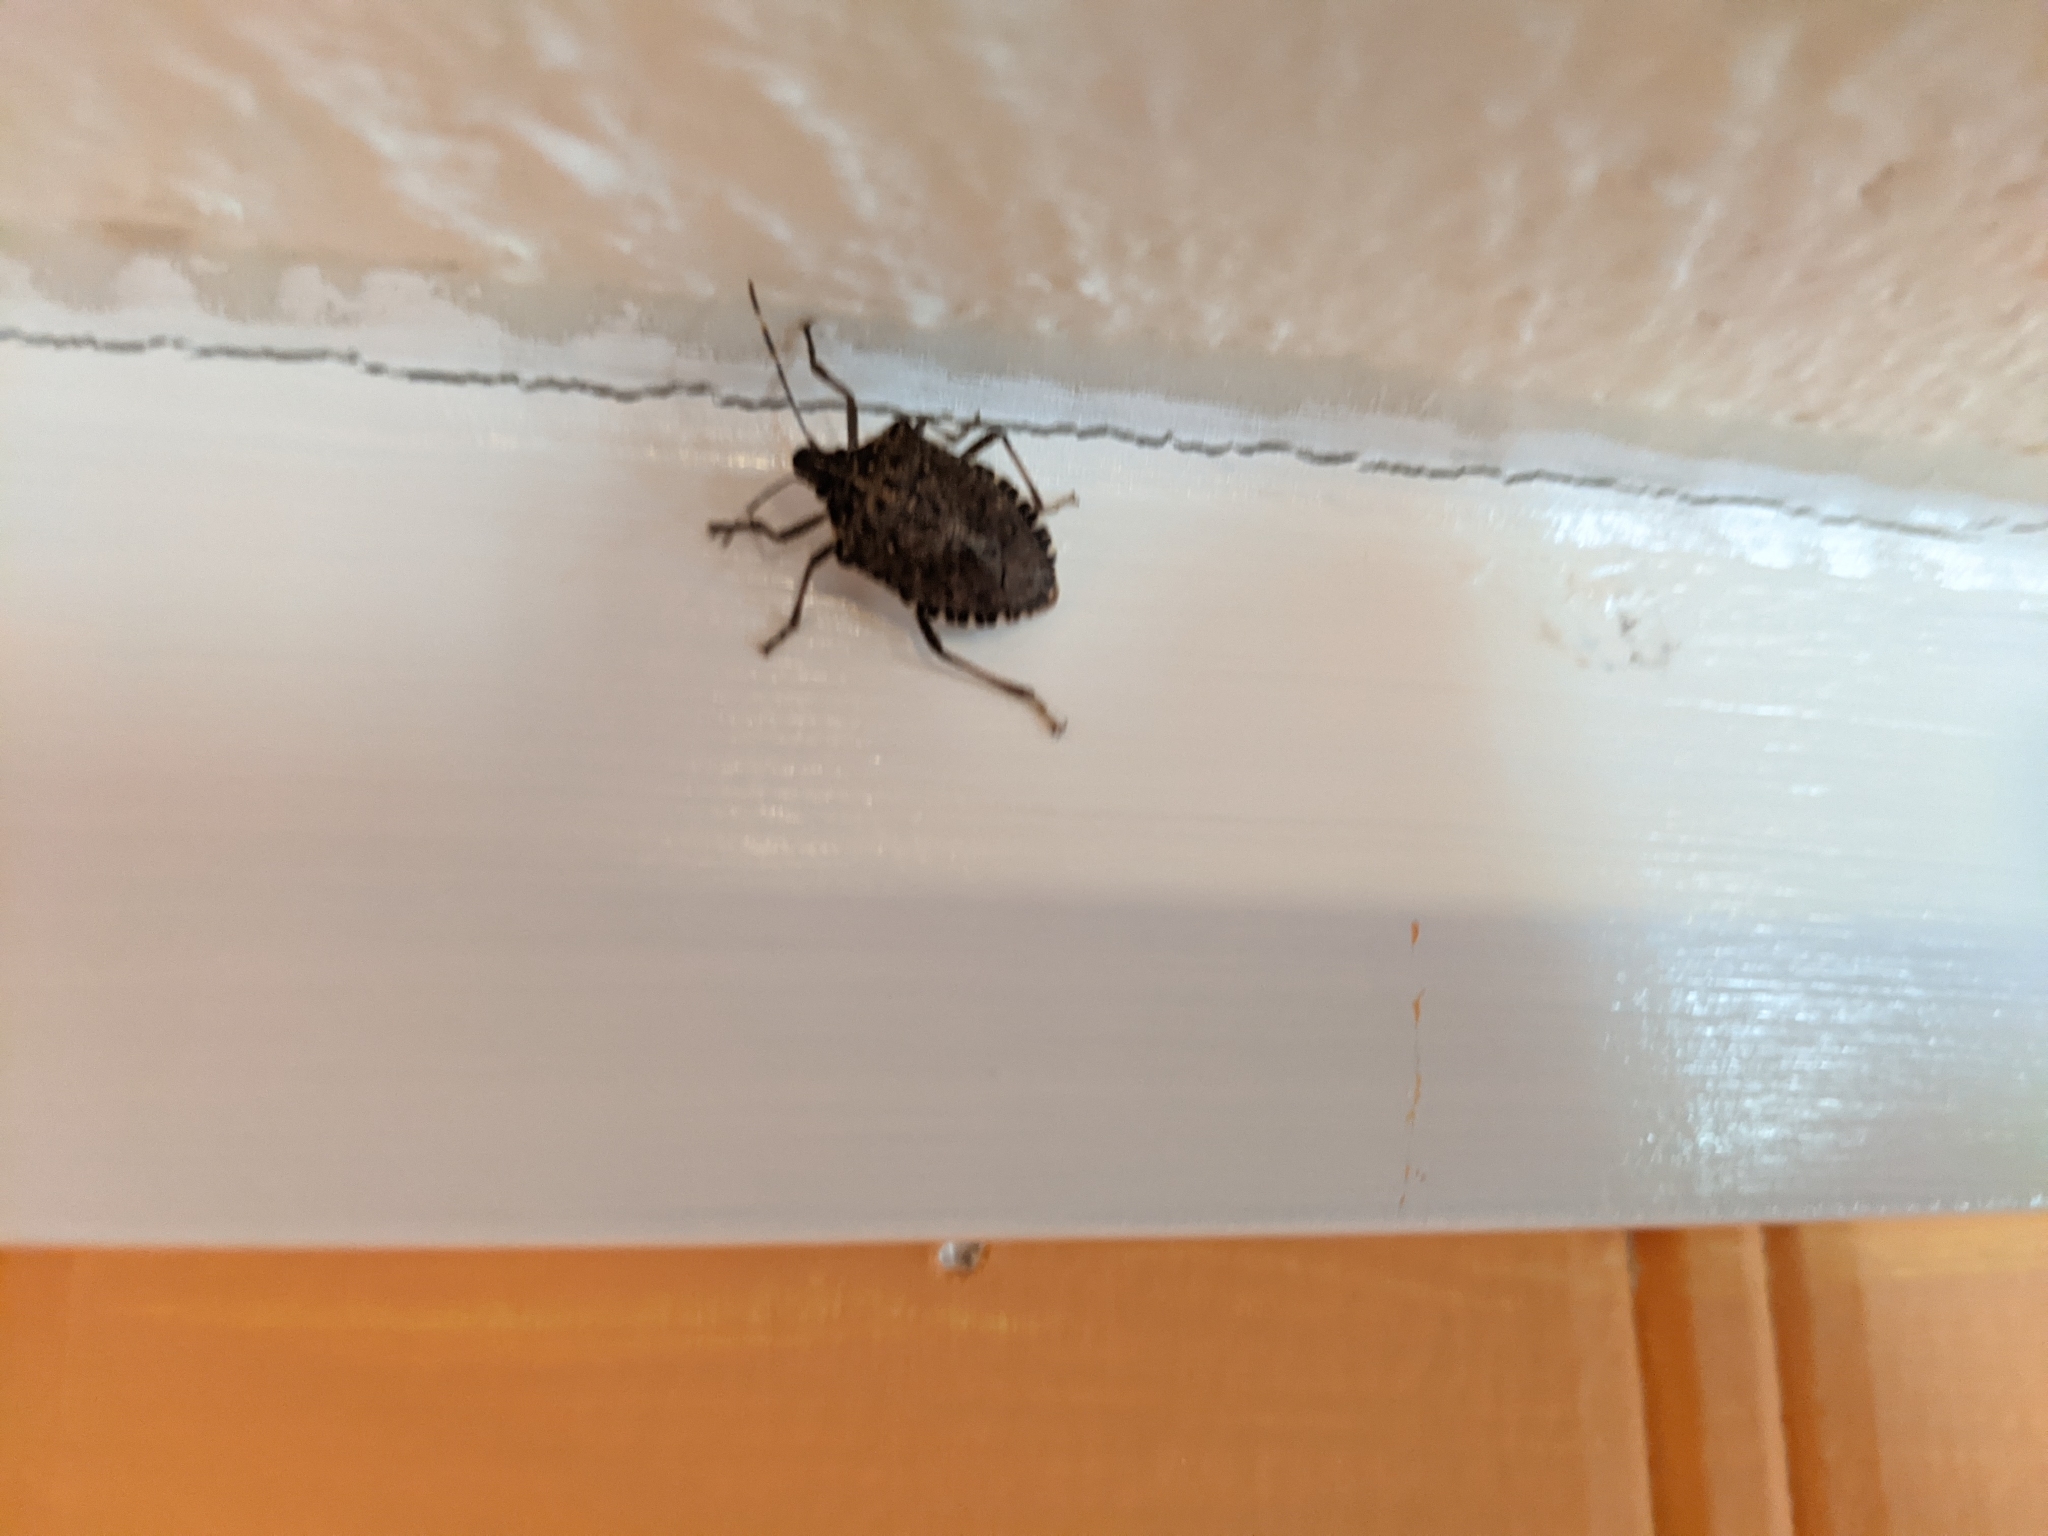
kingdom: Animalia
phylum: Arthropoda
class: Insecta
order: Hemiptera
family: Pentatomidae
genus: Halyomorpha
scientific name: Halyomorpha halys
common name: Brown marmorated stink bug
